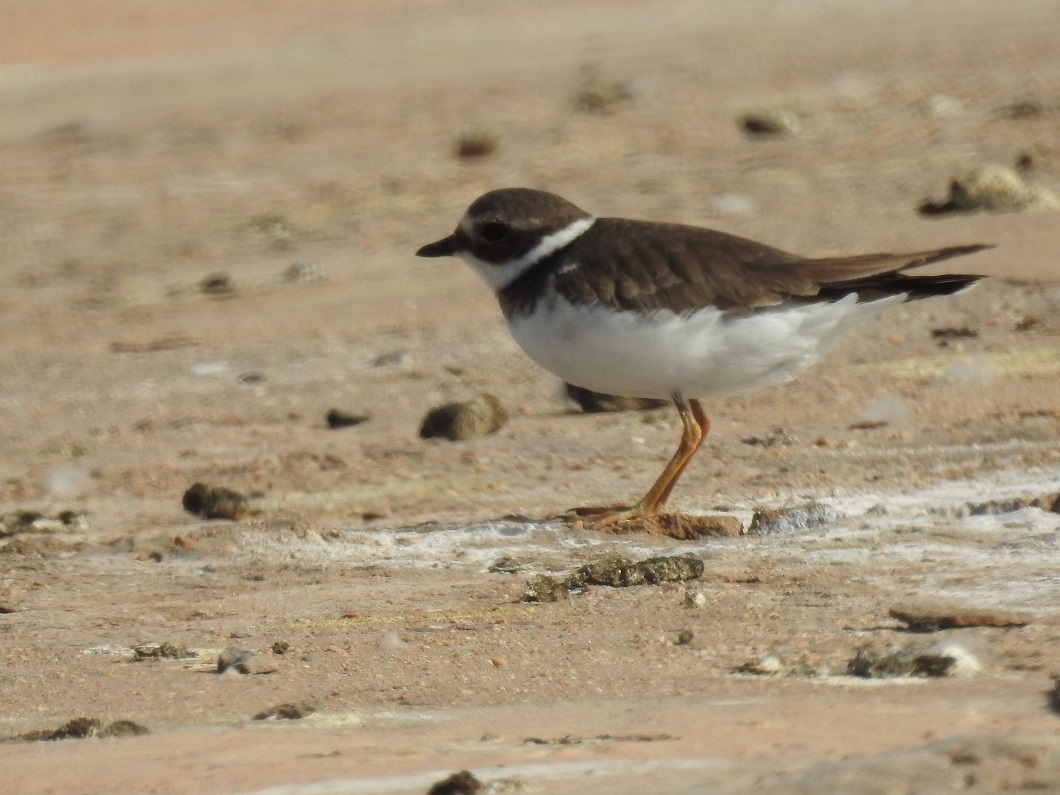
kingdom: Animalia
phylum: Chordata
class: Aves
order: Charadriiformes
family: Charadriidae
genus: Charadrius
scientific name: Charadrius hiaticula
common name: Common ringed plover
